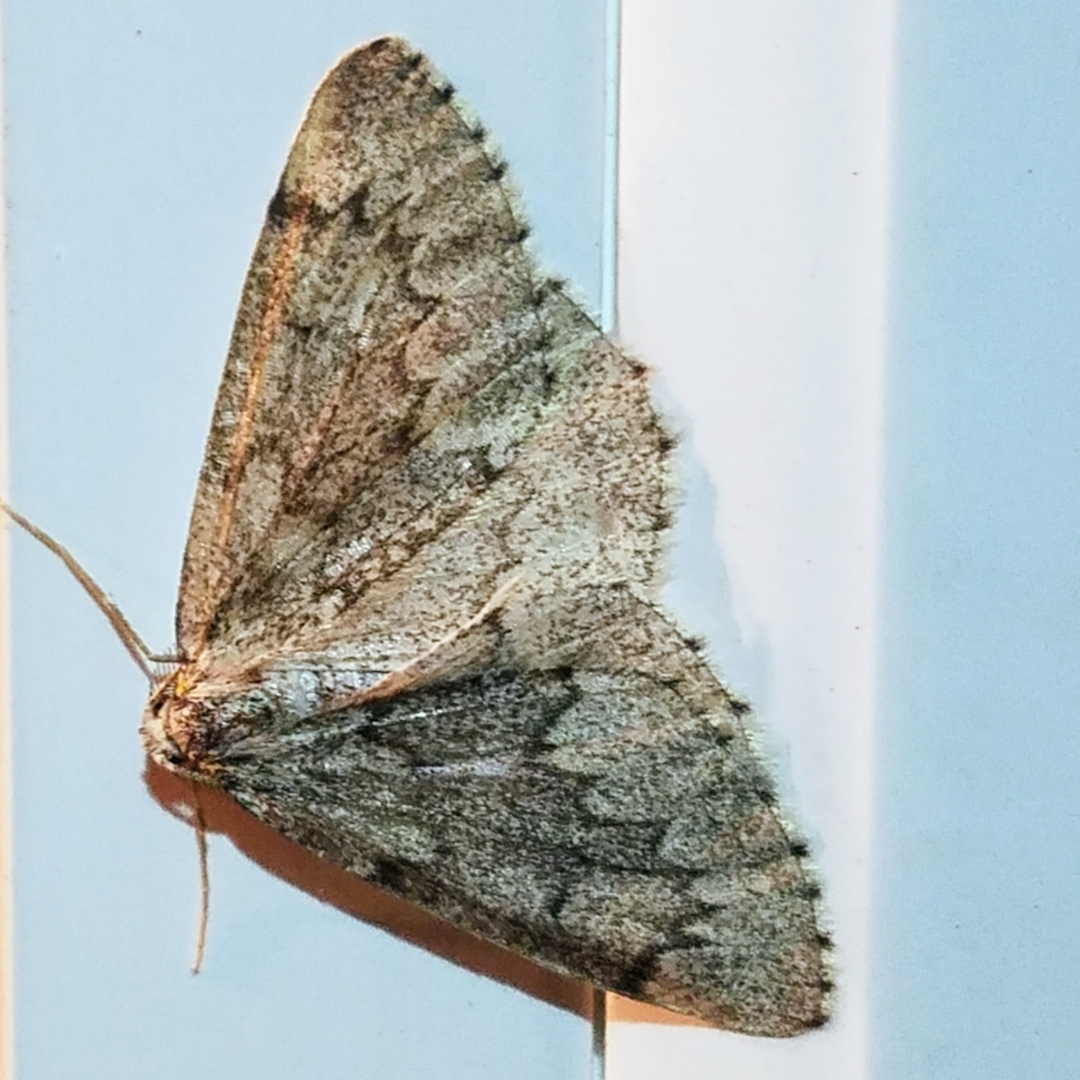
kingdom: Animalia
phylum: Arthropoda
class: Insecta
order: Lepidoptera
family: Geometridae
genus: Nepytia
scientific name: Nepytia freemani
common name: Western false hemlock looper
